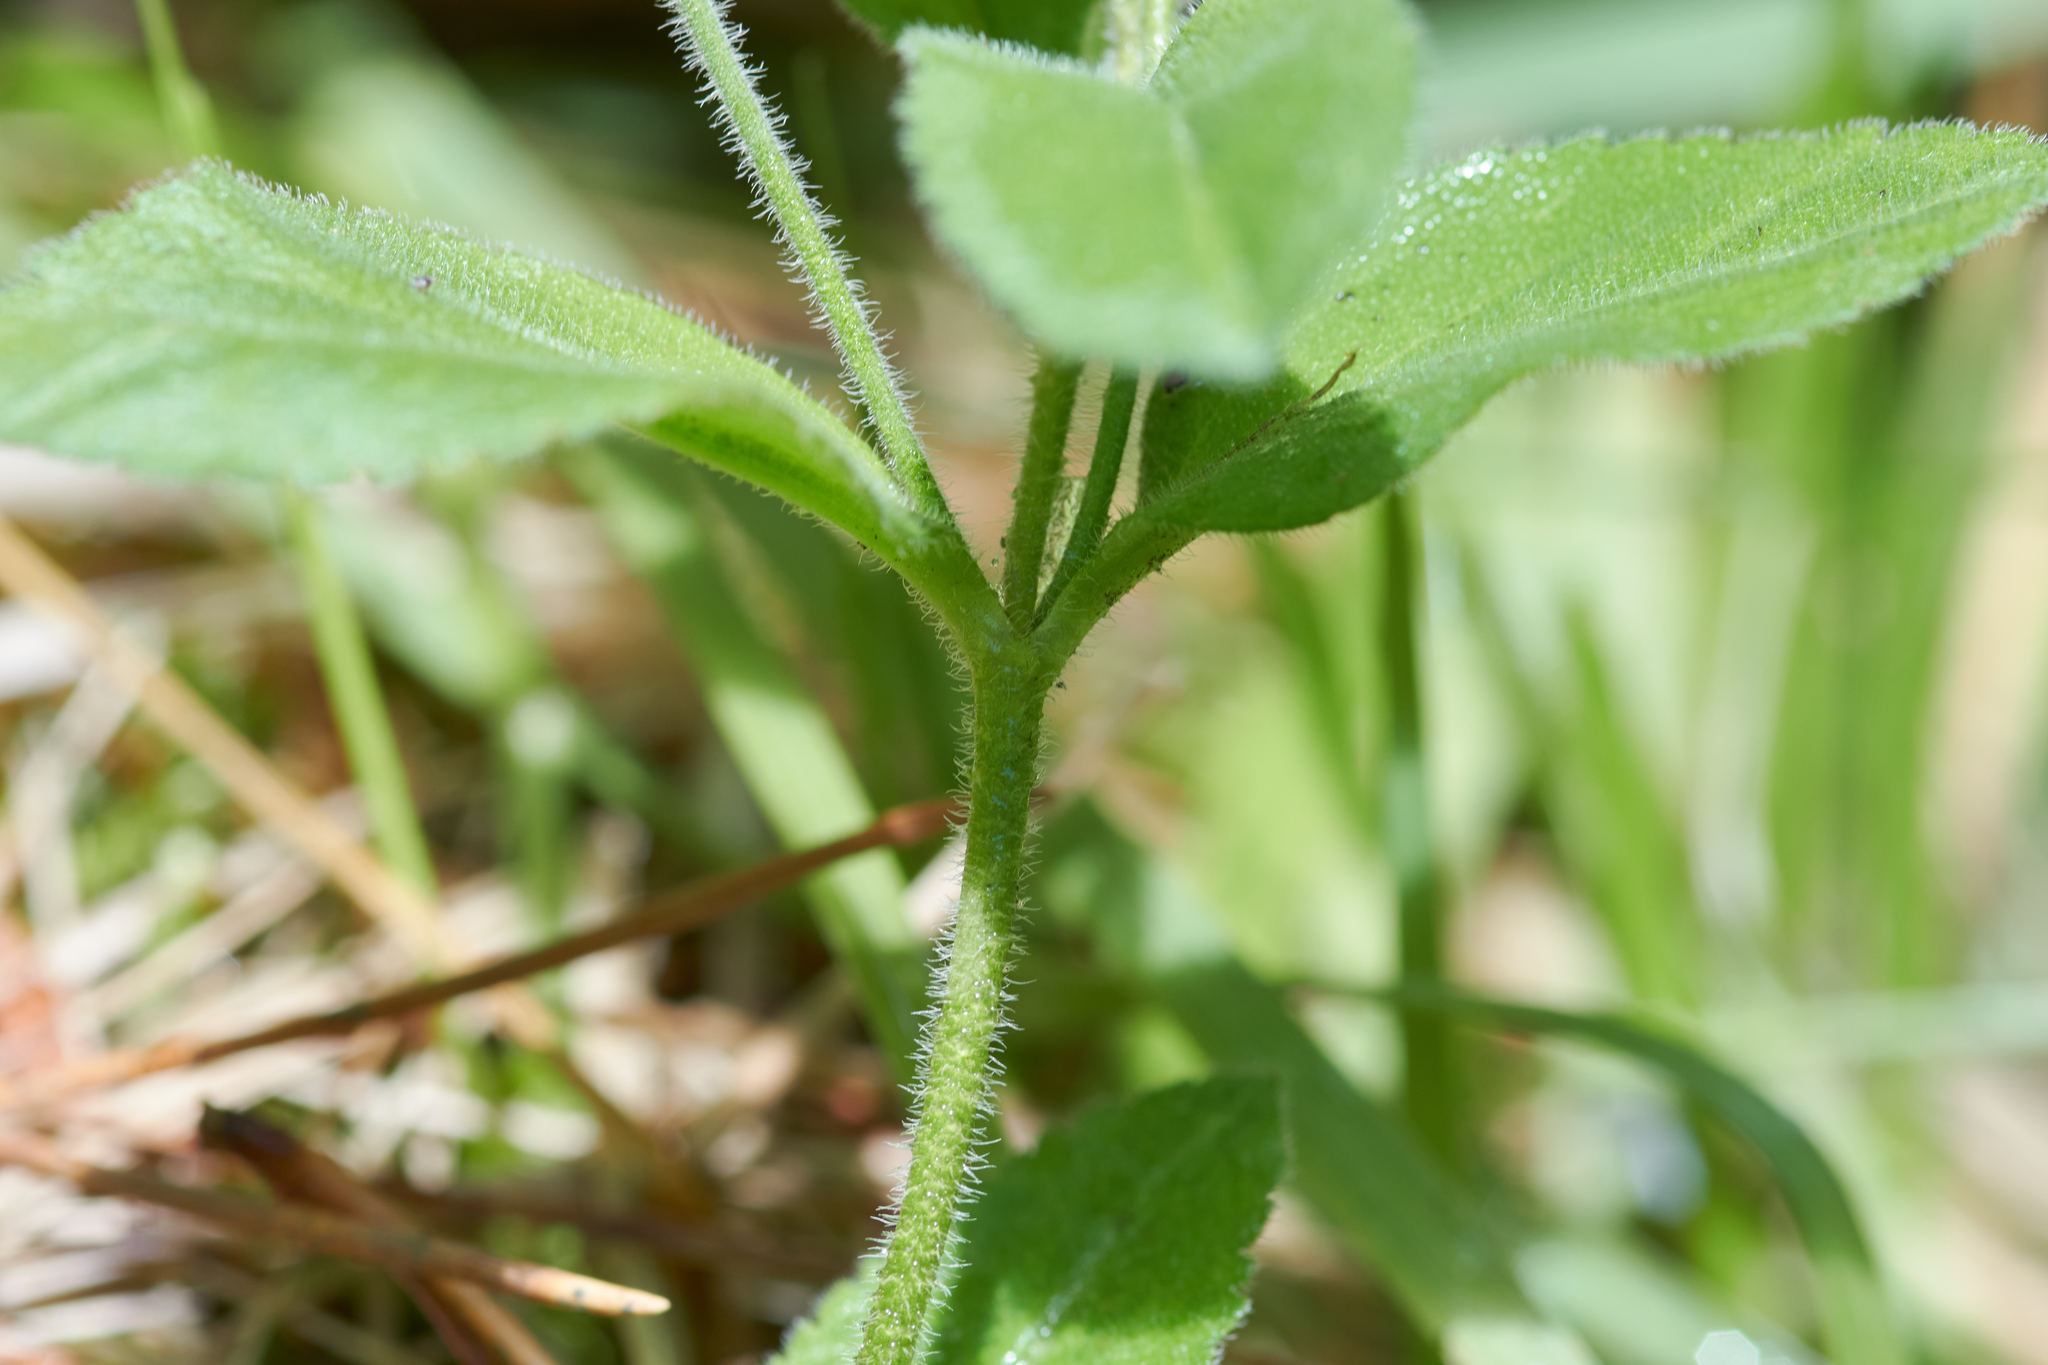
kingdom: Plantae
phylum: Tracheophyta
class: Magnoliopsida
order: Lamiales
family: Plantaginaceae
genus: Veronica
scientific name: Veronica officinalis
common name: Common speedwell
